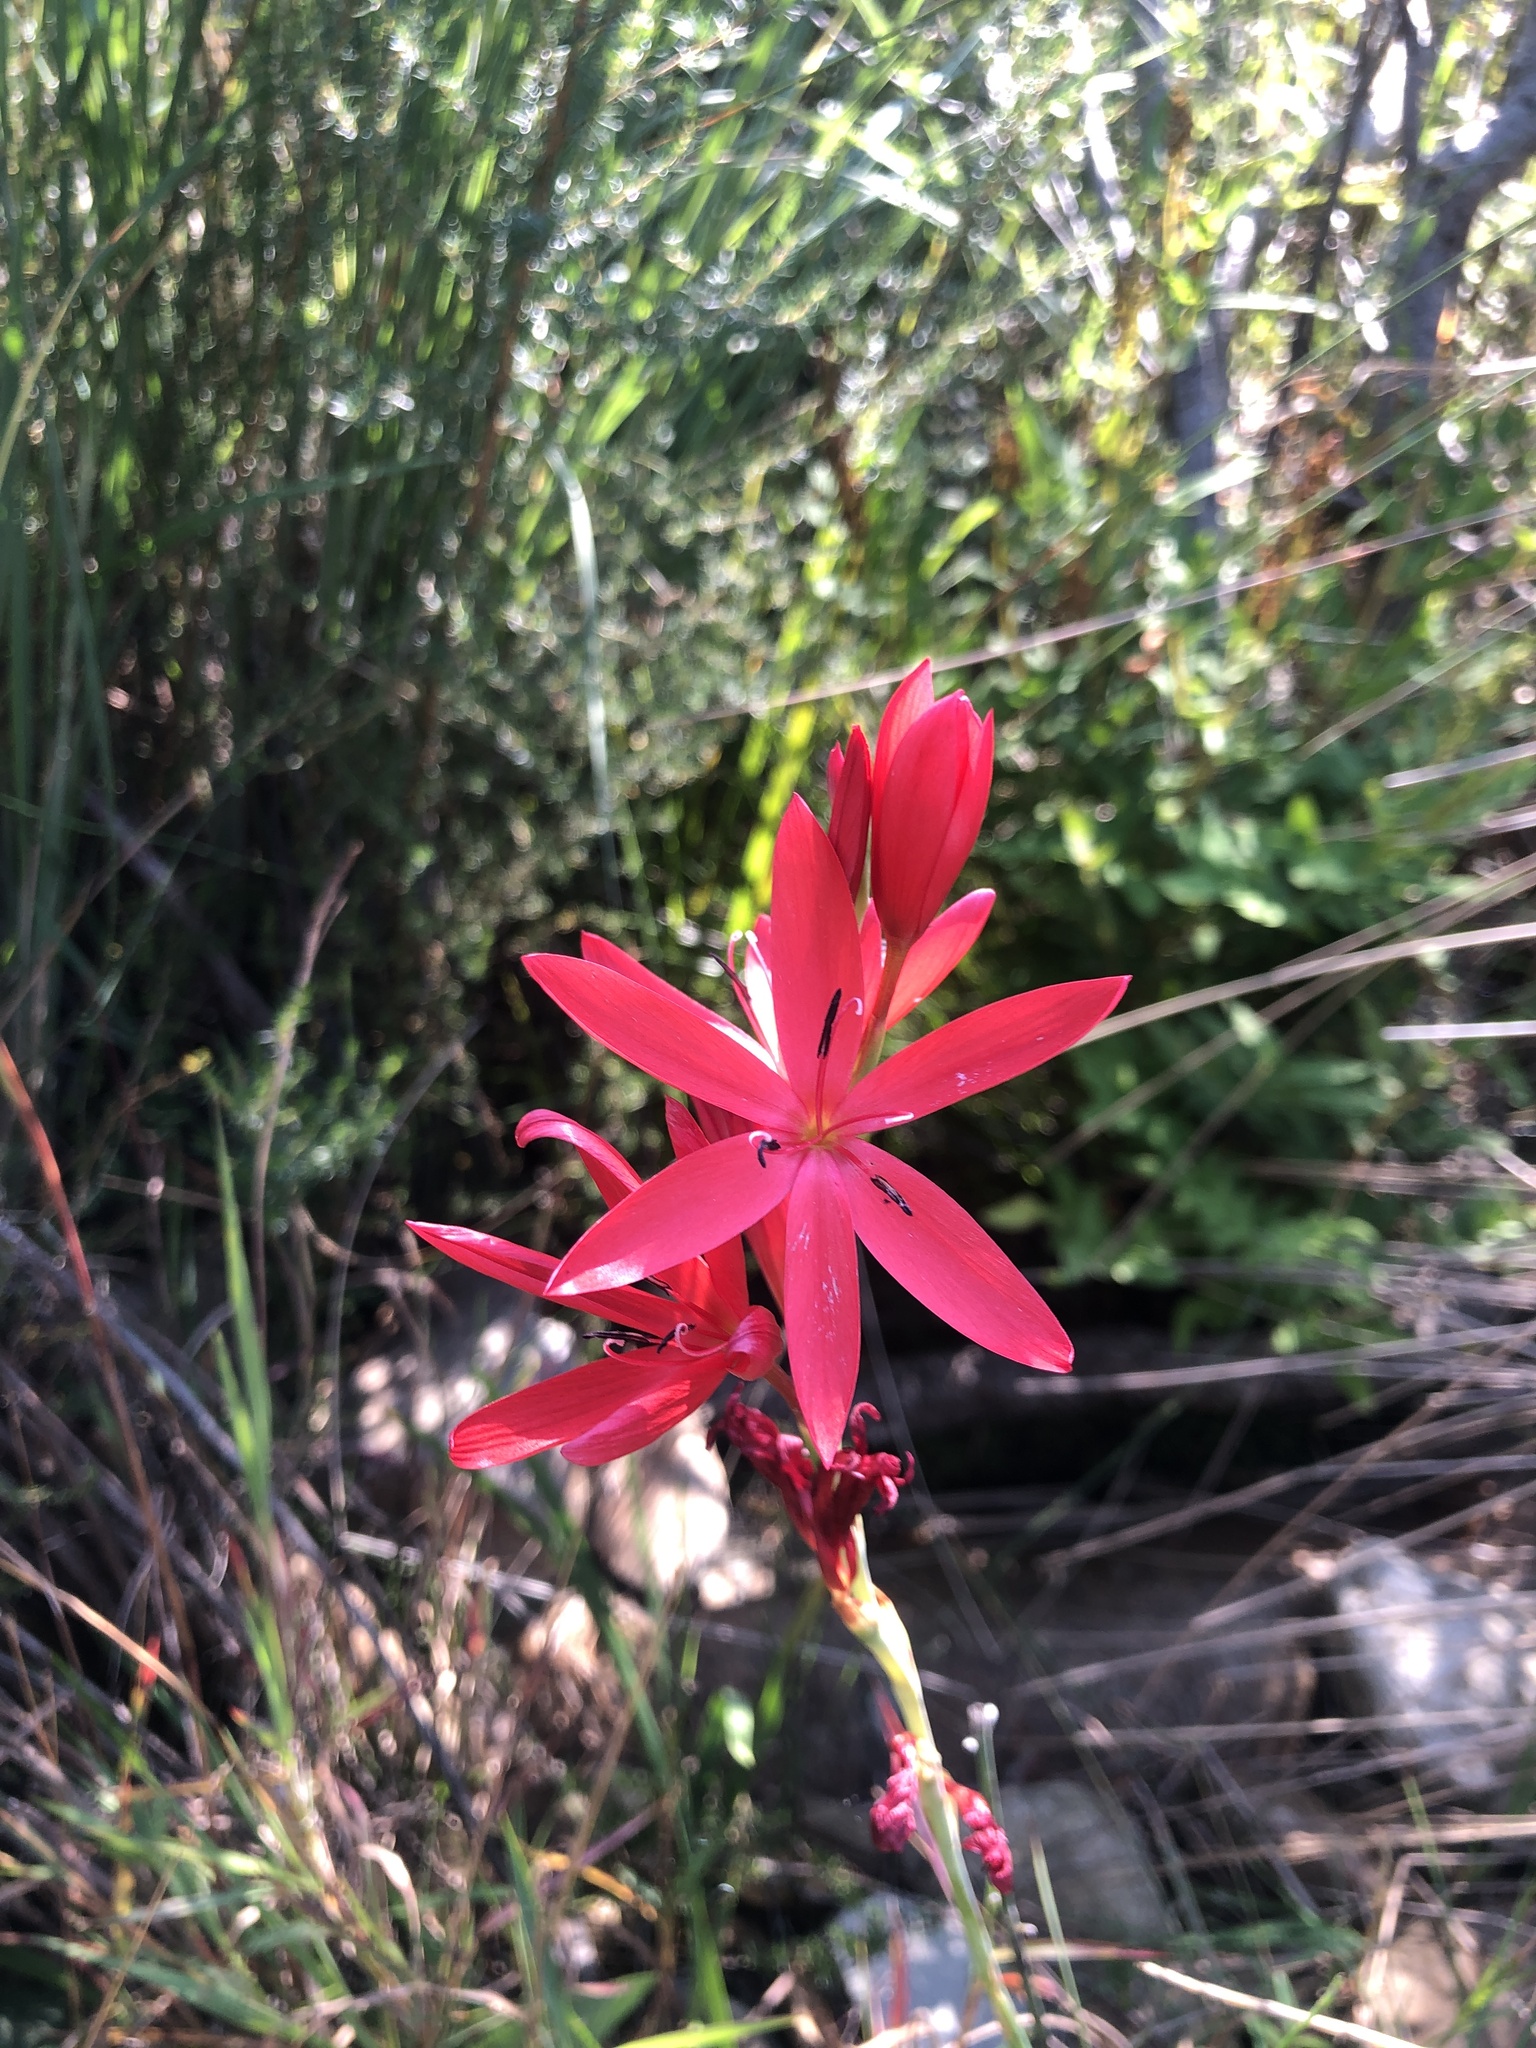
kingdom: Plantae
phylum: Tracheophyta
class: Liliopsida
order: Asparagales
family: Iridaceae
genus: Hesperantha
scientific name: Hesperantha coccinea
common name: River-lily
